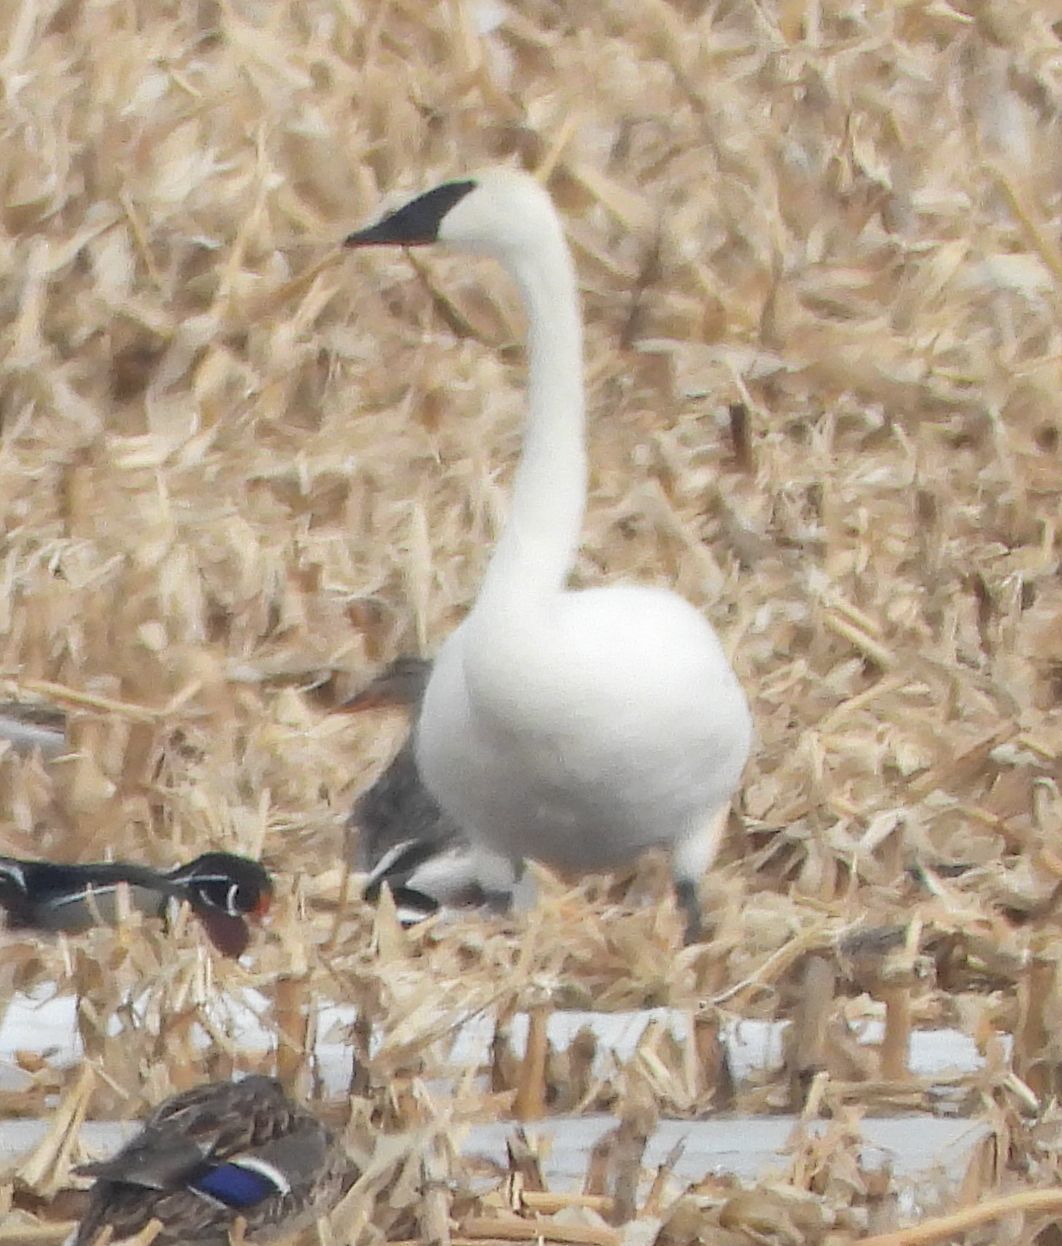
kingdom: Animalia
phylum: Chordata
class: Aves
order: Anseriformes
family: Anatidae
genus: Cygnus
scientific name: Cygnus buccinator
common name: Trumpeter swan
